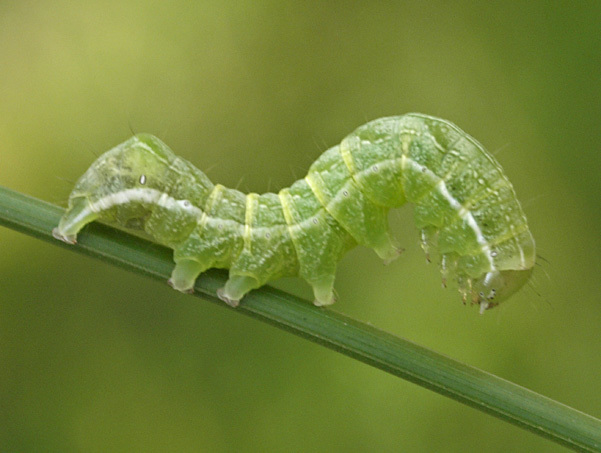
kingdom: Animalia
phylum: Arthropoda
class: Insecta
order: Lepidoptera
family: Noctuidae
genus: Melanchra
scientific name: Melanchra persicariae
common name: Dot moth
